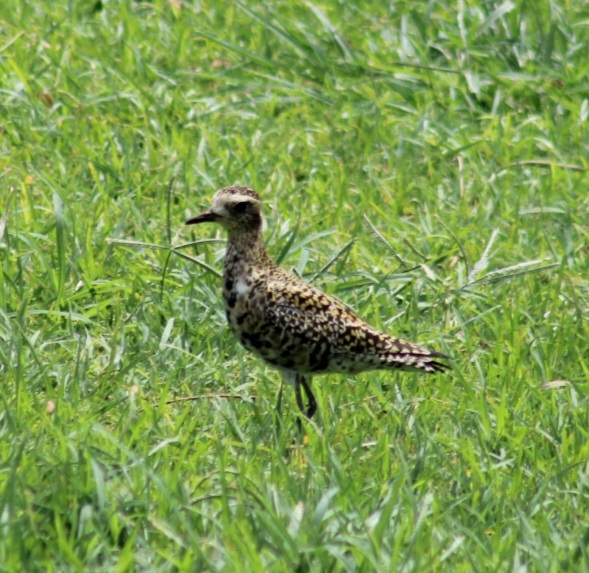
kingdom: Animalia
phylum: Chordata
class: Aves
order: Charadriiformes
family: Charadriidae
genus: Pluvialis
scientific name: Pluvialis fulva
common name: Pacific golden plover
